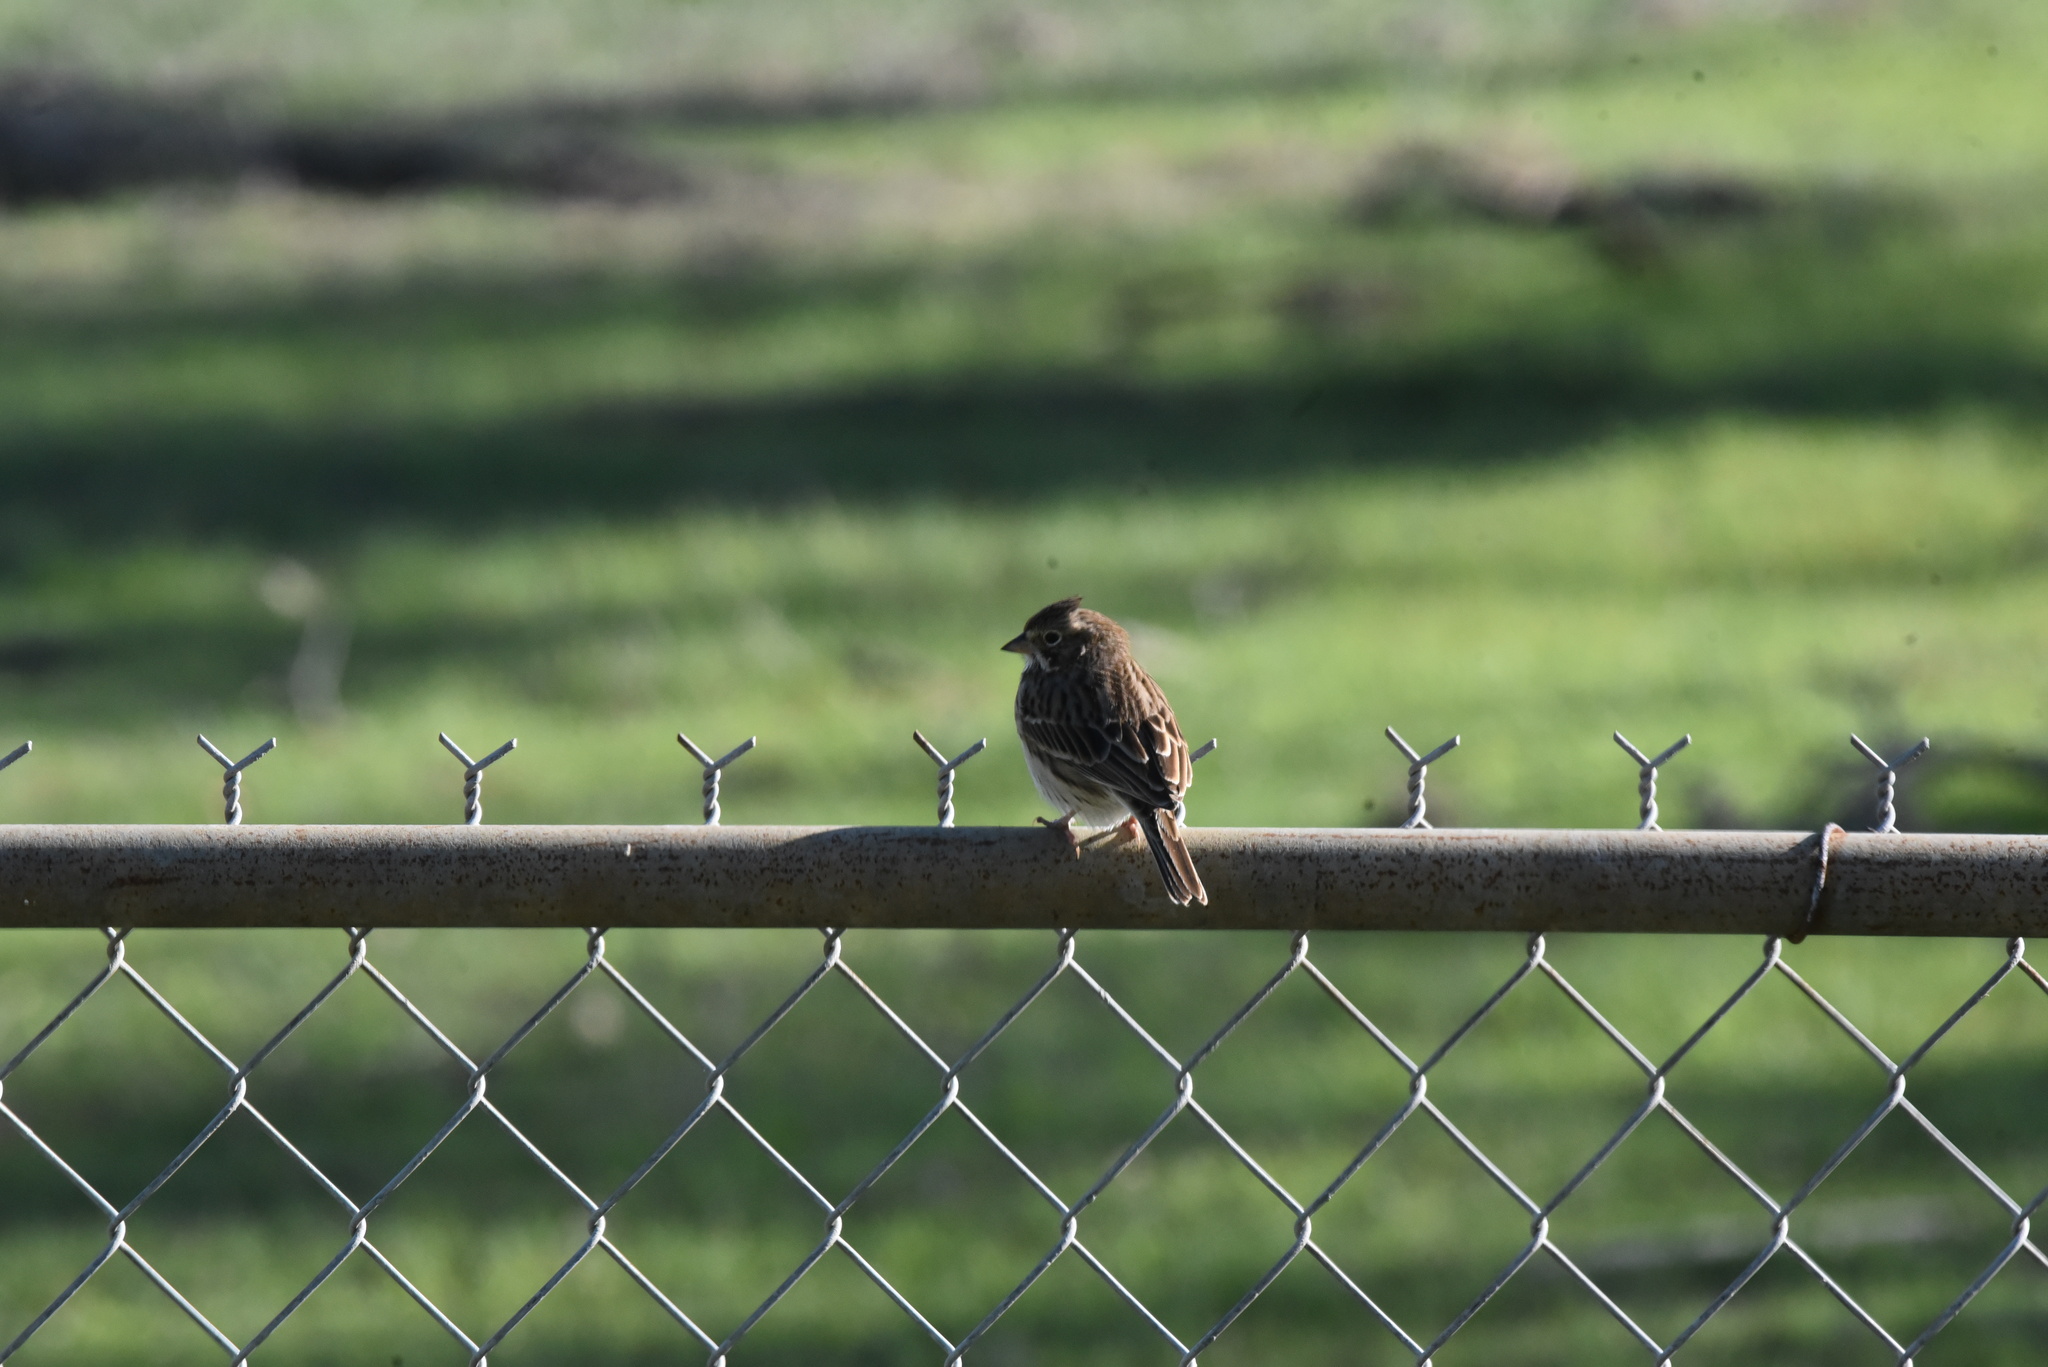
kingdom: Animalia
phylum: Chordata
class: Aves
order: Passeriformes
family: Passerellidae
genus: Pooecetes
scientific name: Pooecetes gramineus
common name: Vesper sparrow
